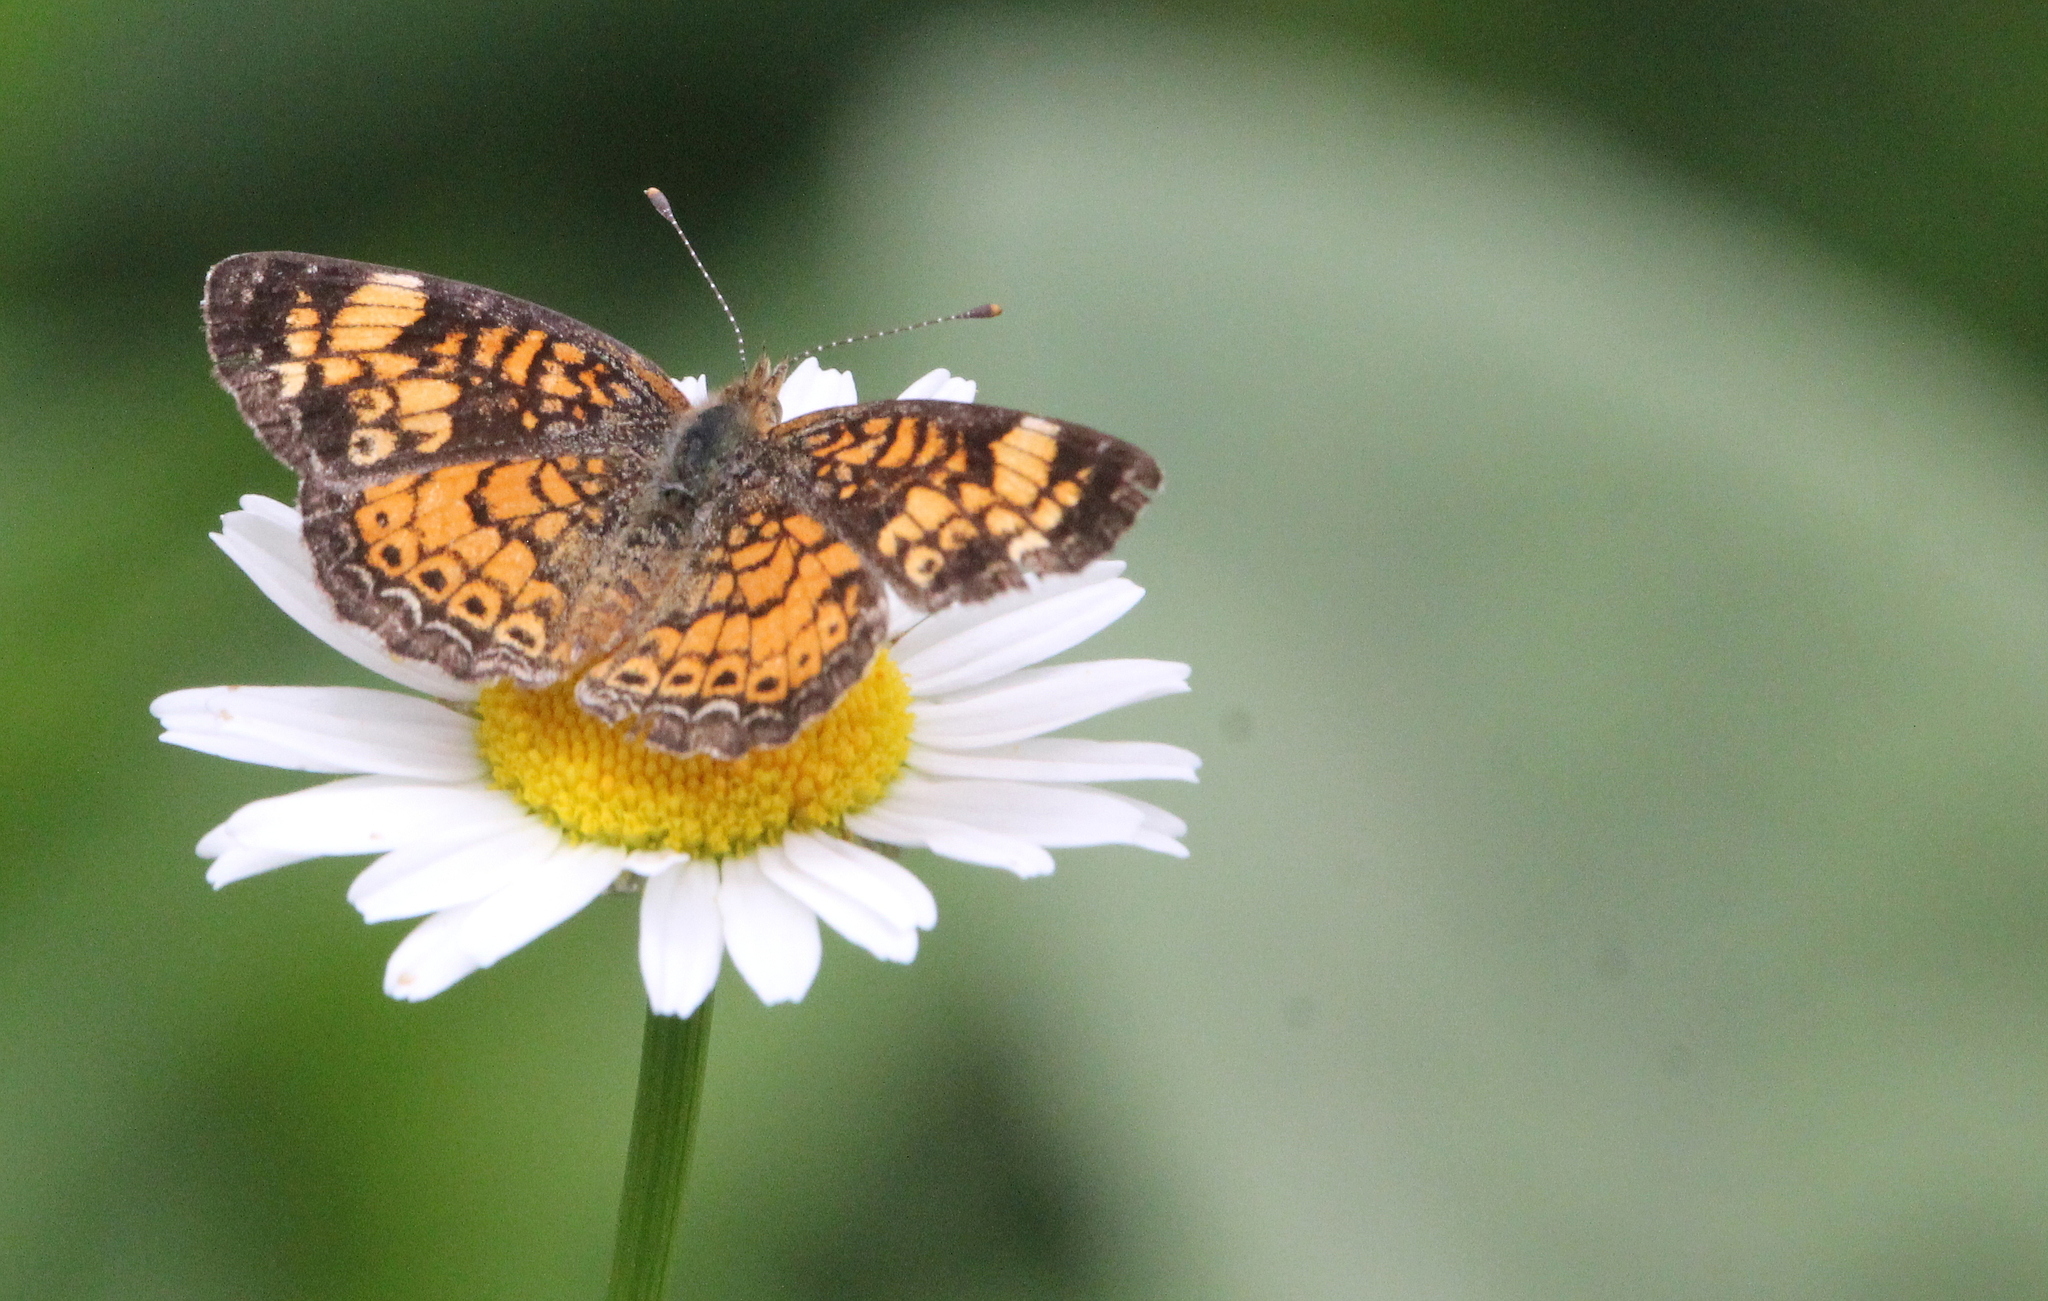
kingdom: Animalia
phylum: Arthropoda
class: Insecta
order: Lepidoptera
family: Nymphalidae
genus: Phyciodes
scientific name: Phyciodes tharos
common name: Pearl crescent
